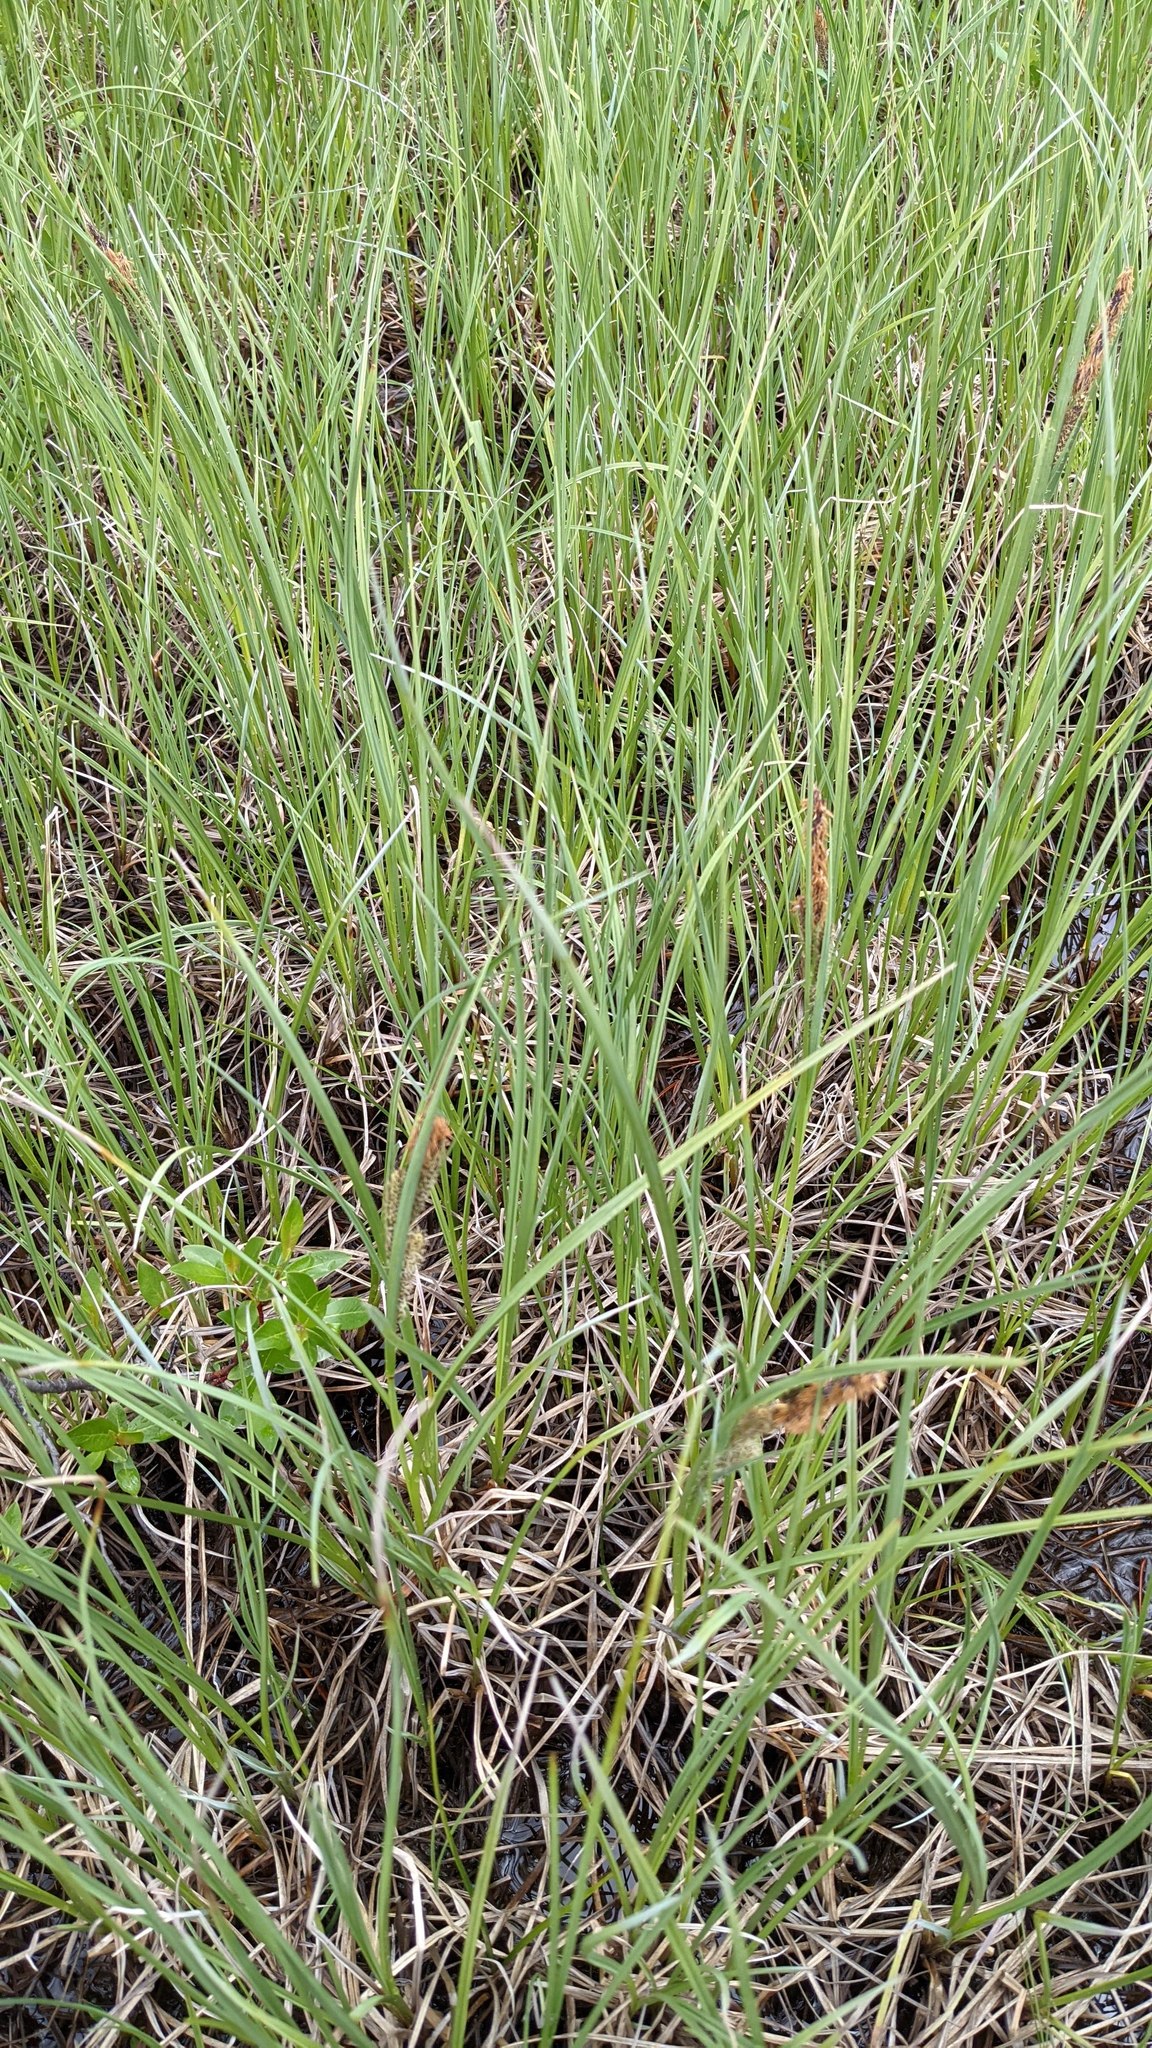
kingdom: Plantae
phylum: Tracheophyta
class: Liliopsida
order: Poales
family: Cyperaceae
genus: Carex
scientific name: Carex
